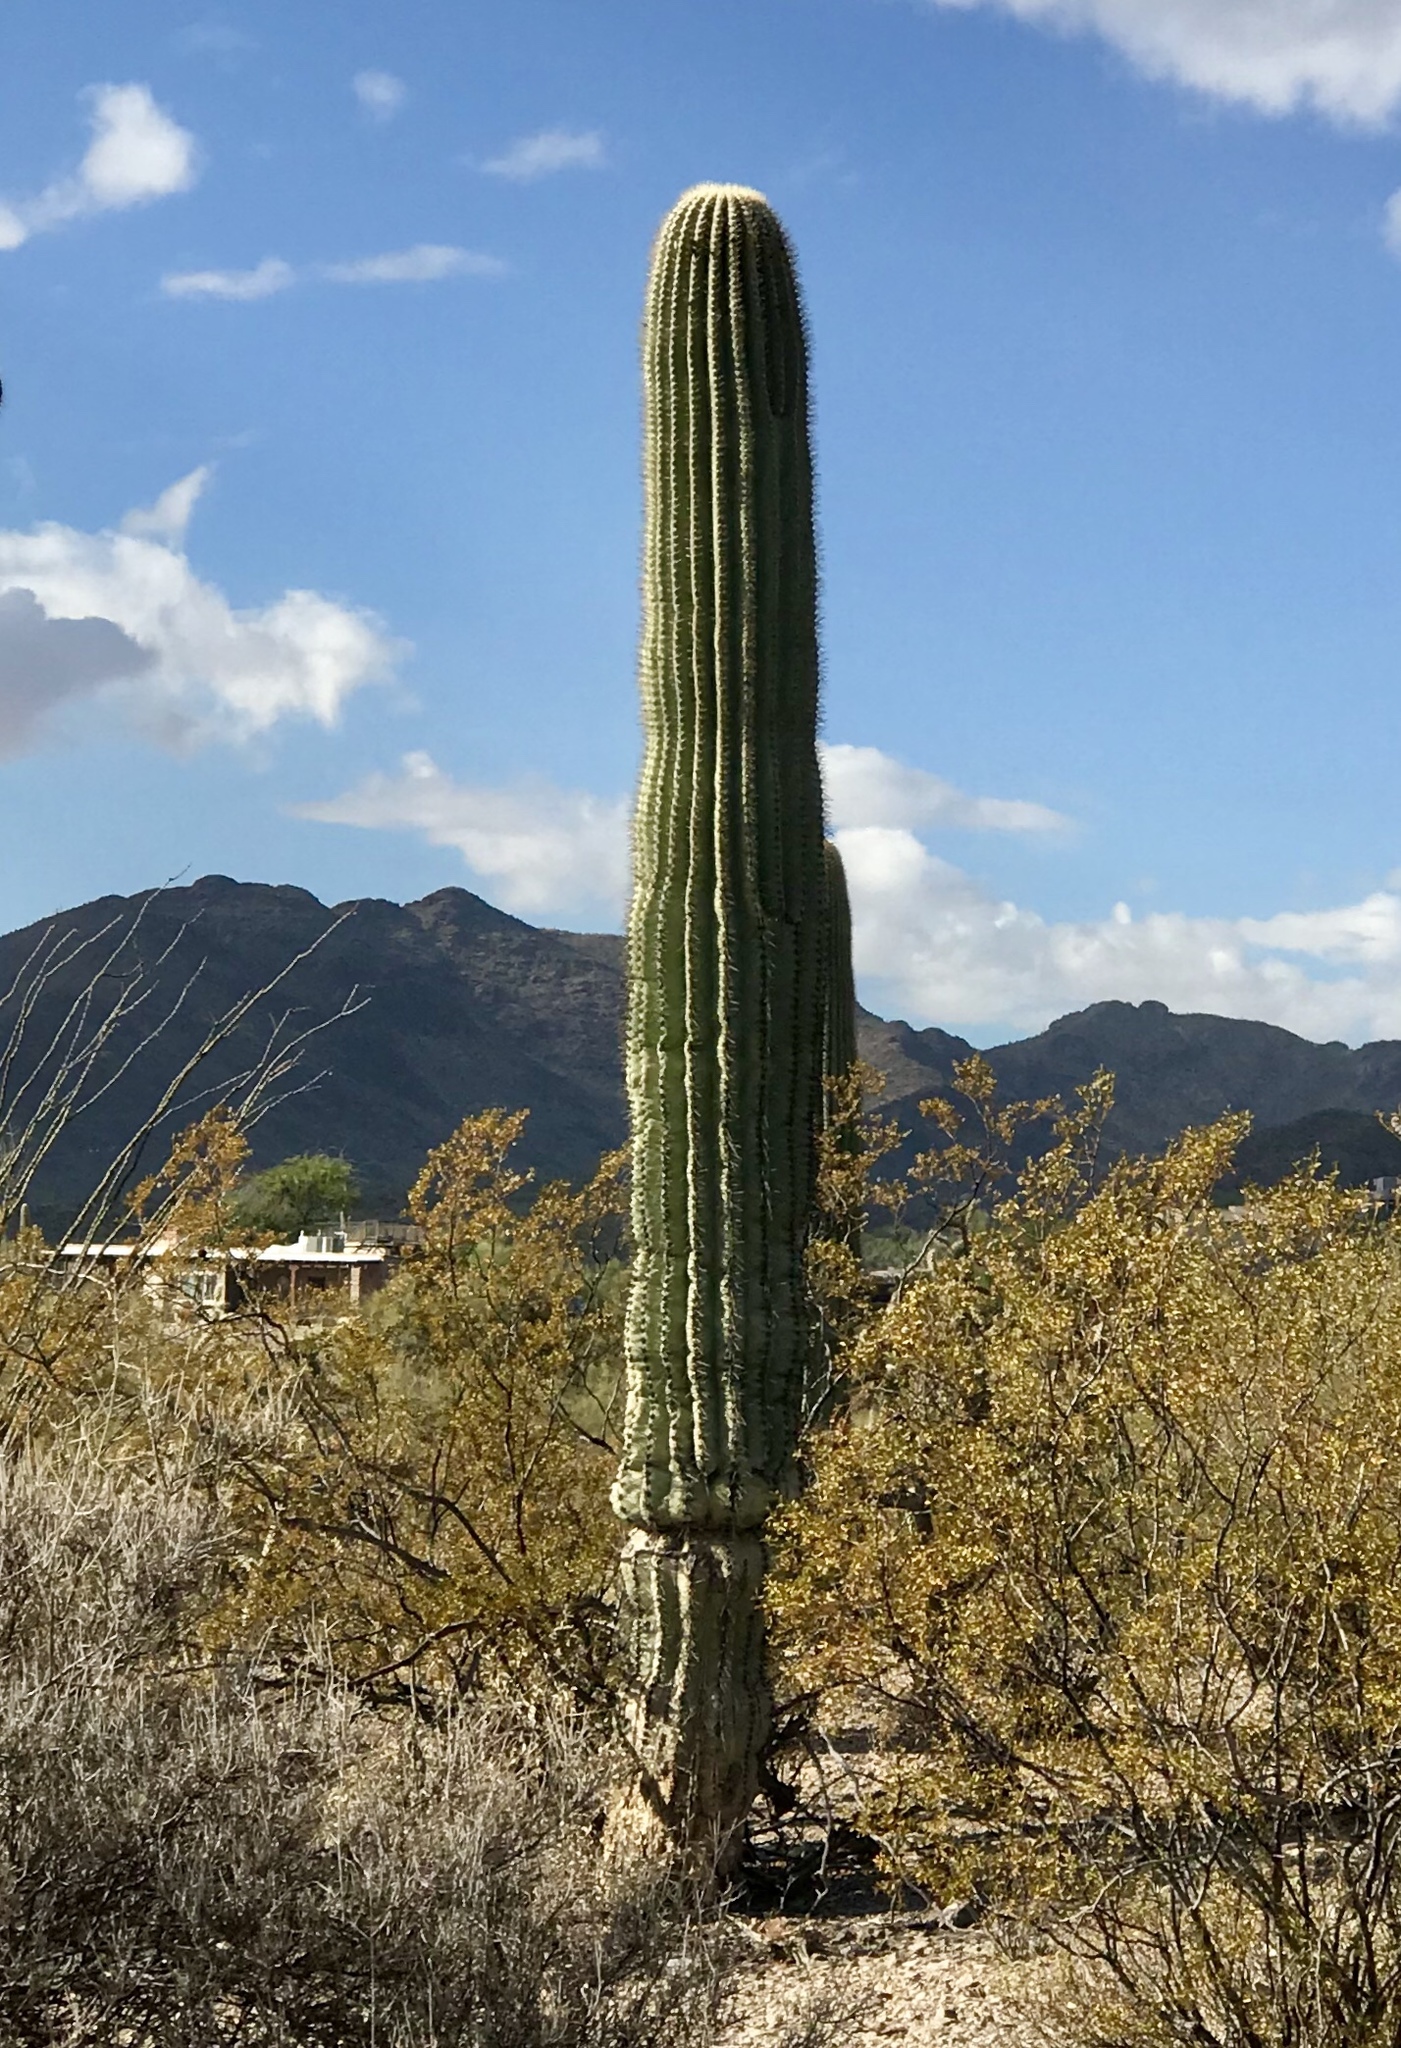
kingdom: Plantae
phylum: Tracheophyta
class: Magnoliopsida
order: Caryophyllales
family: Cactaceae
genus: Carnegiea
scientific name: Carnegiea gigantea
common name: Saguaro
